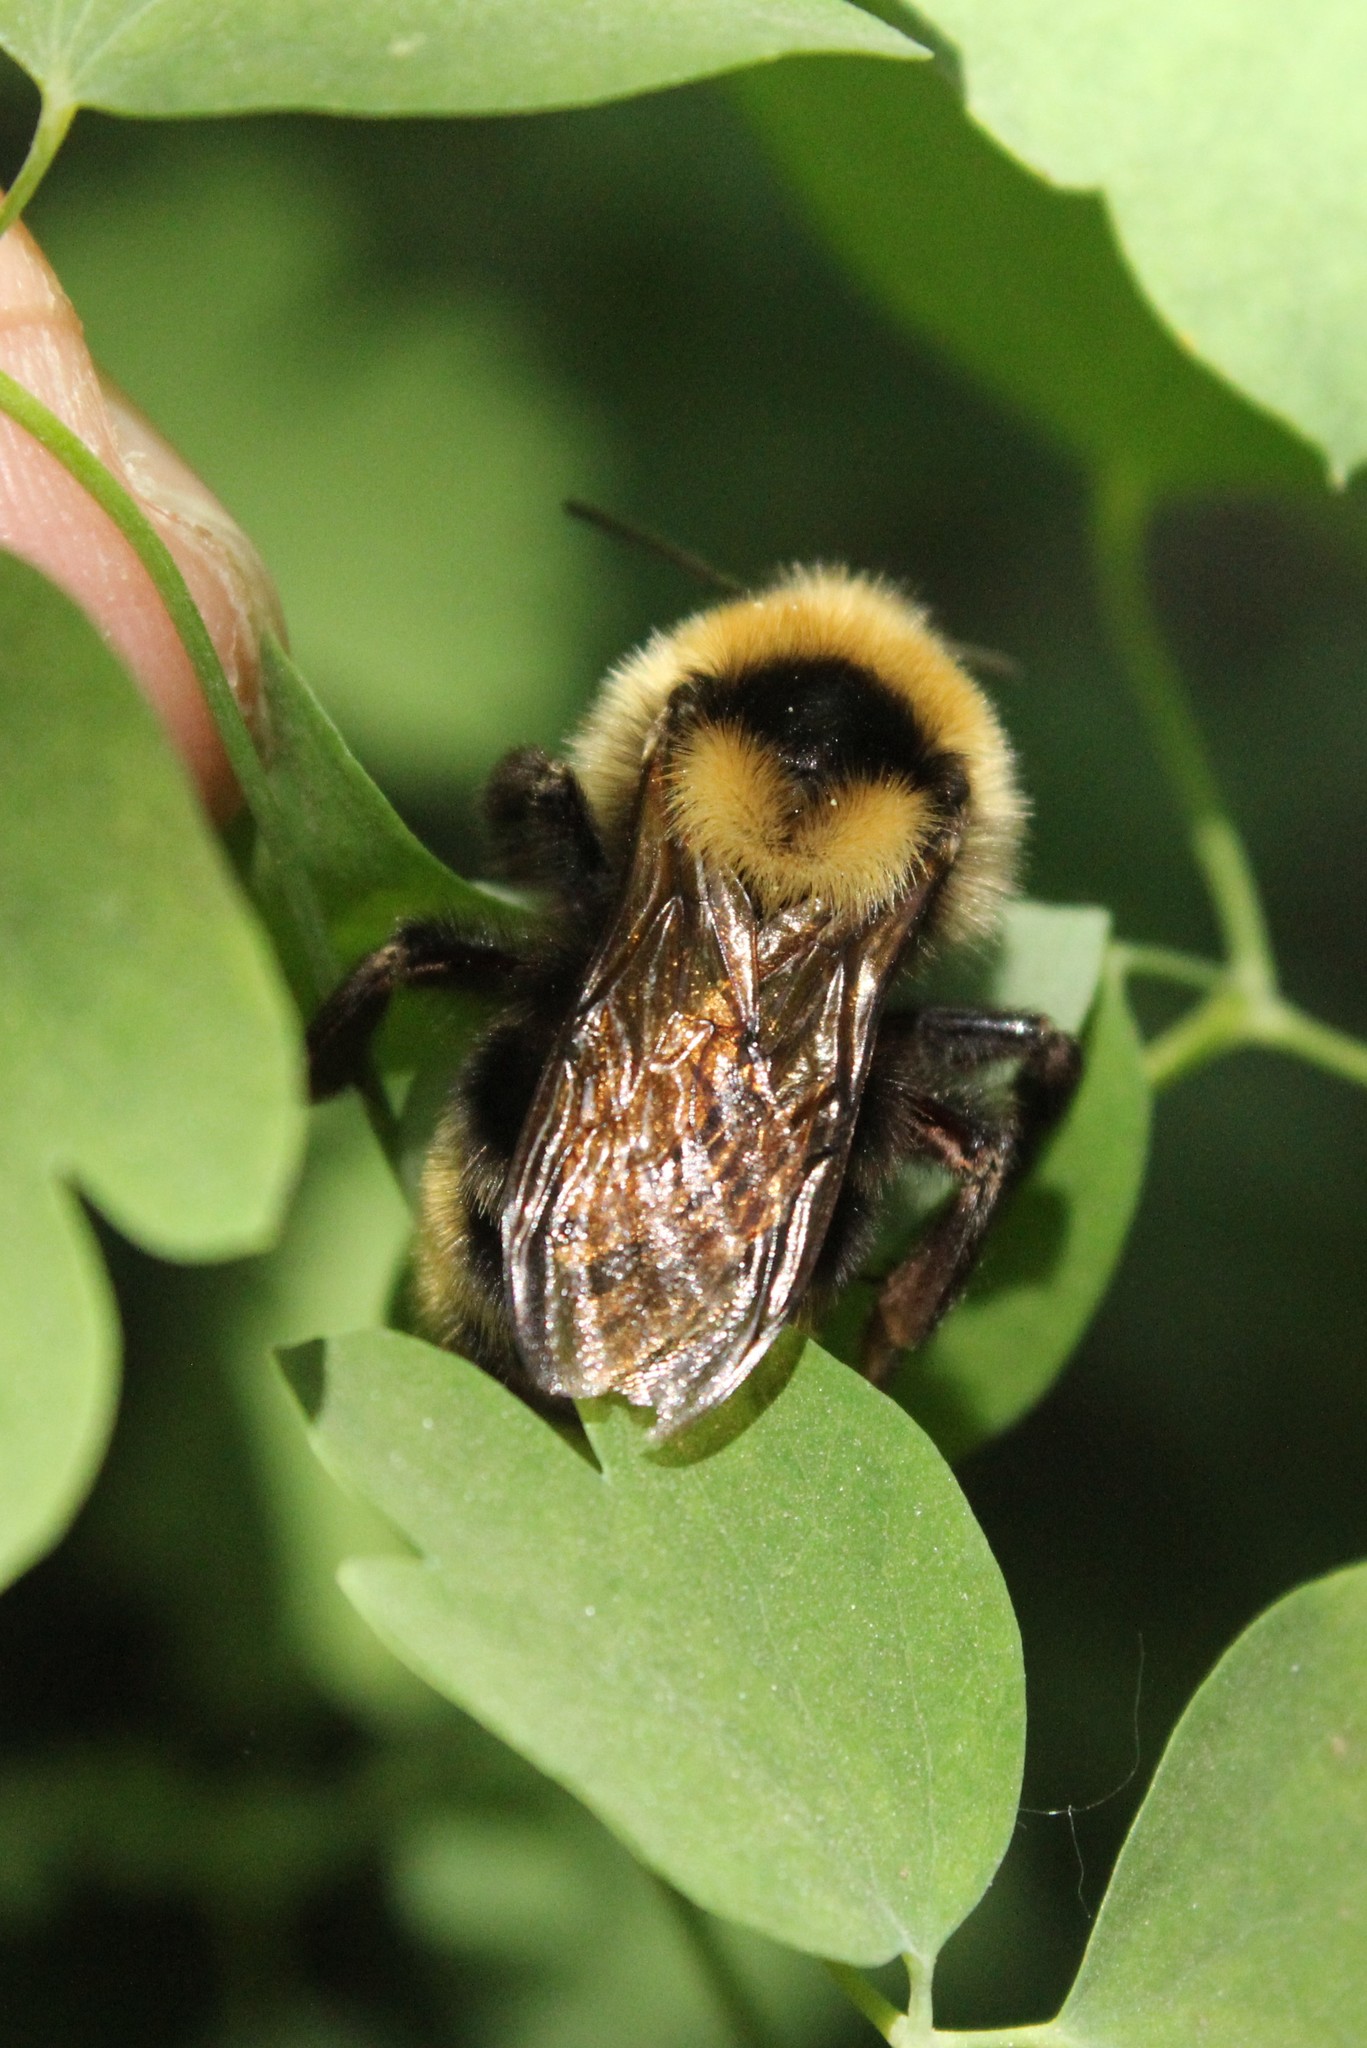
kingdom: Animalia
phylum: Arthropoda
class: Insecta
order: Hymenoptera
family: Apidae
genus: Bombus
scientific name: Bombus insularis
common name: Indiscriminate cuckoo bumble bee
